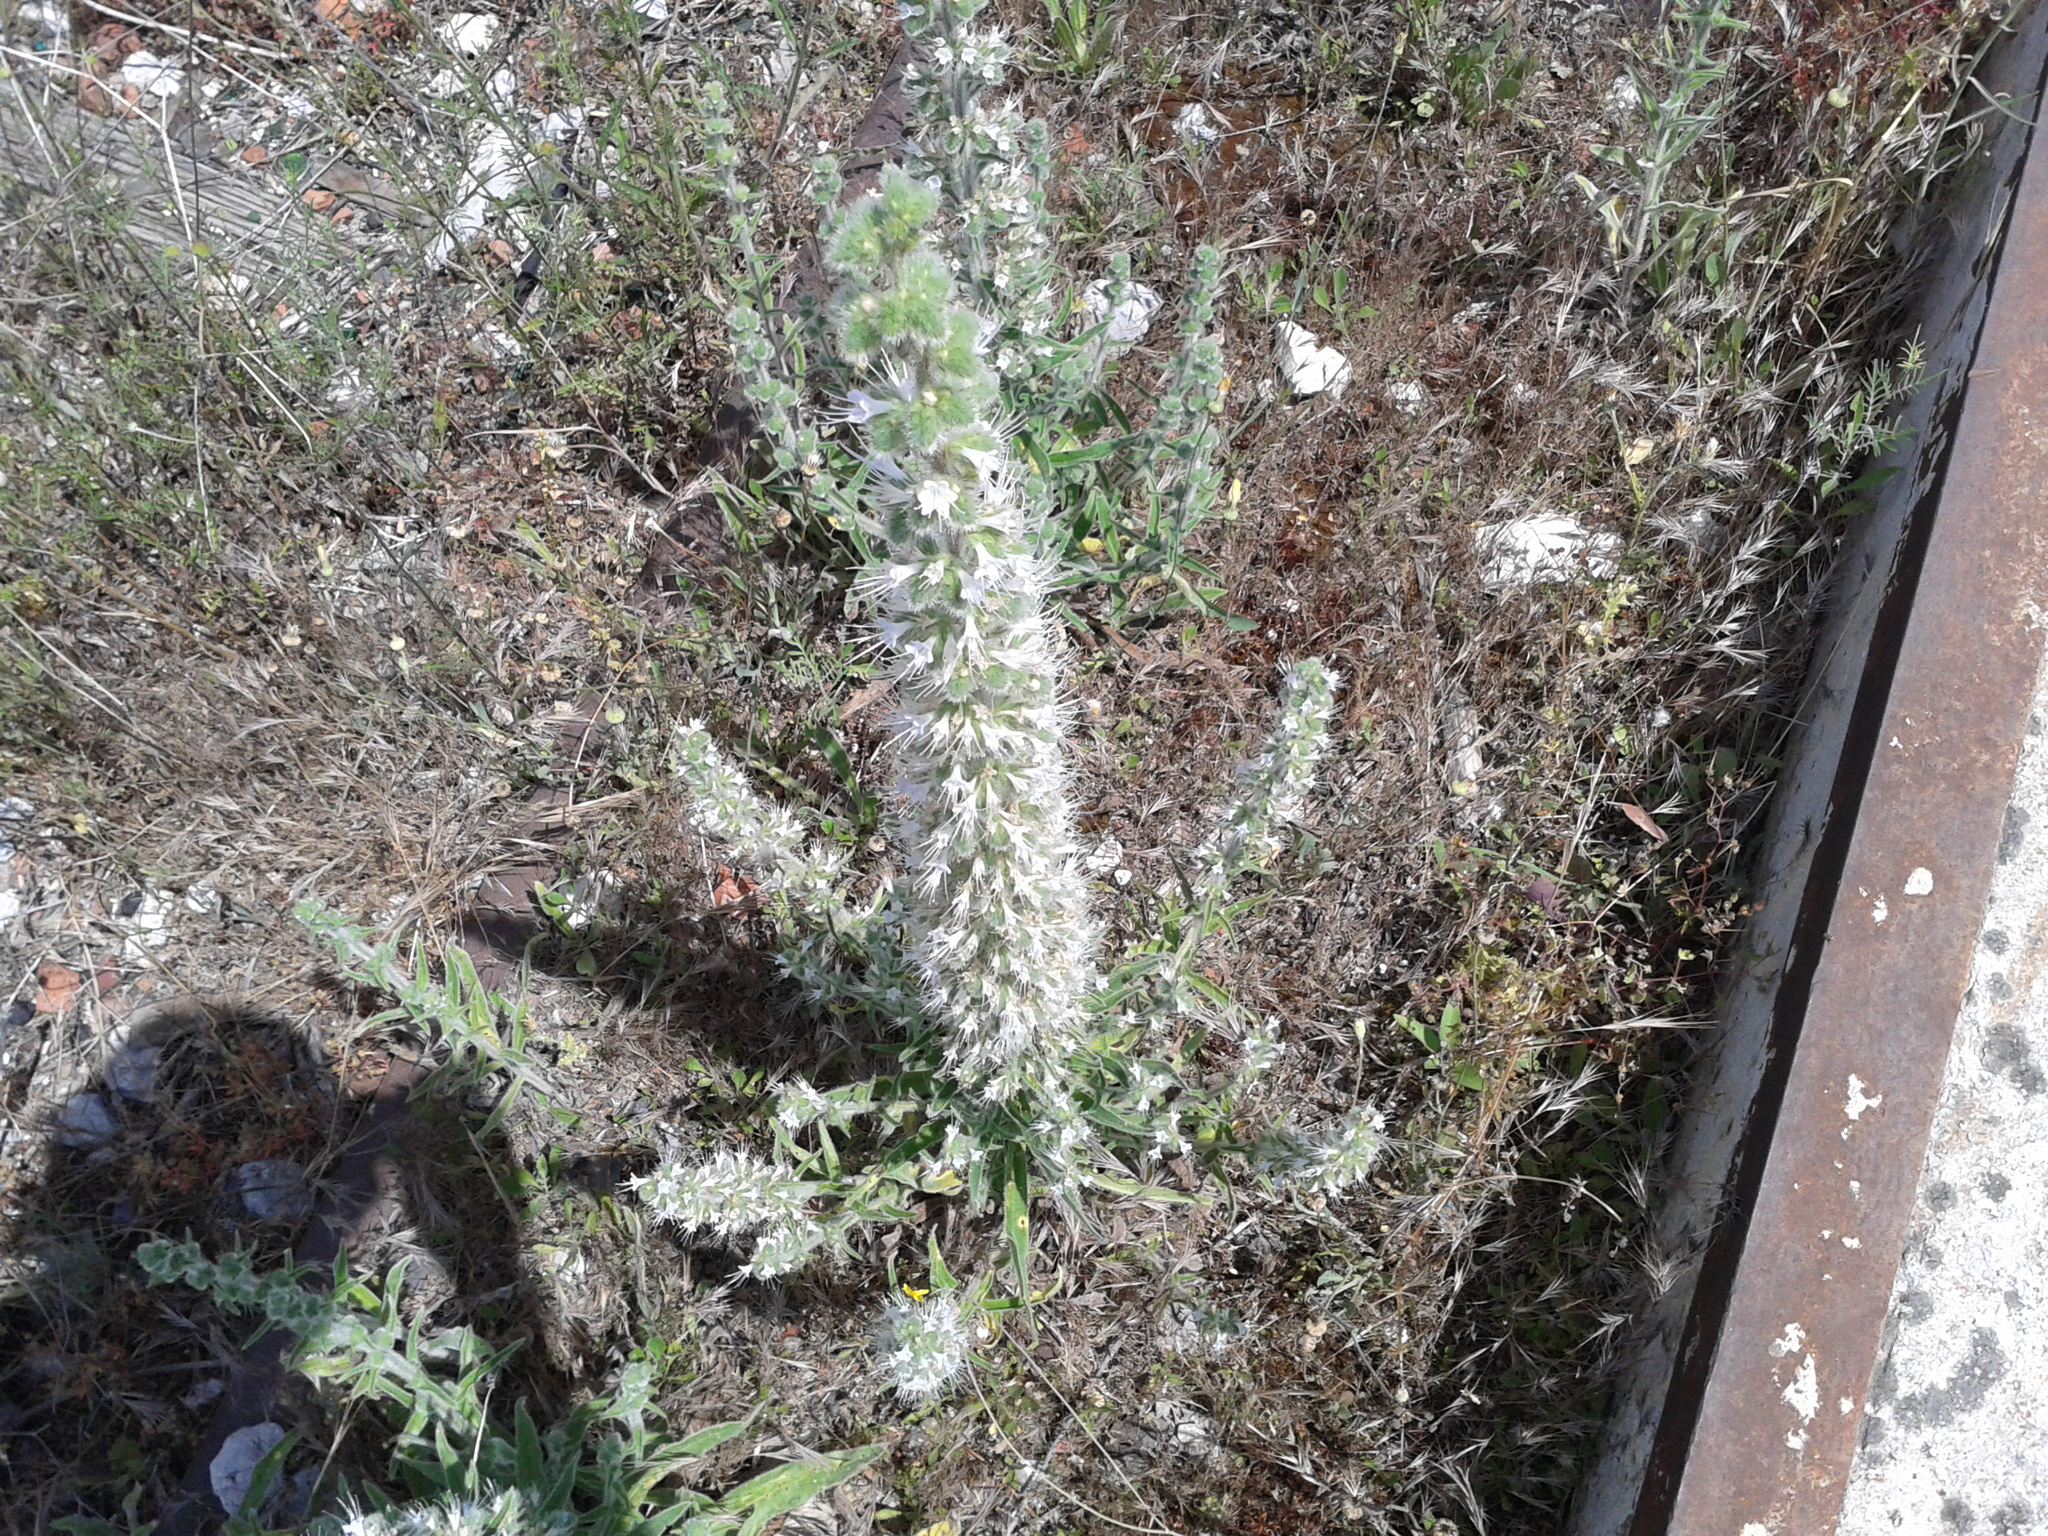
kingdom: Plantae
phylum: Tracheophyta
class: Magnoliopsida
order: Boraginales
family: Boraginaceae
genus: Echium
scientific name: Echium italicum
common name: Italian viper's bugloss
